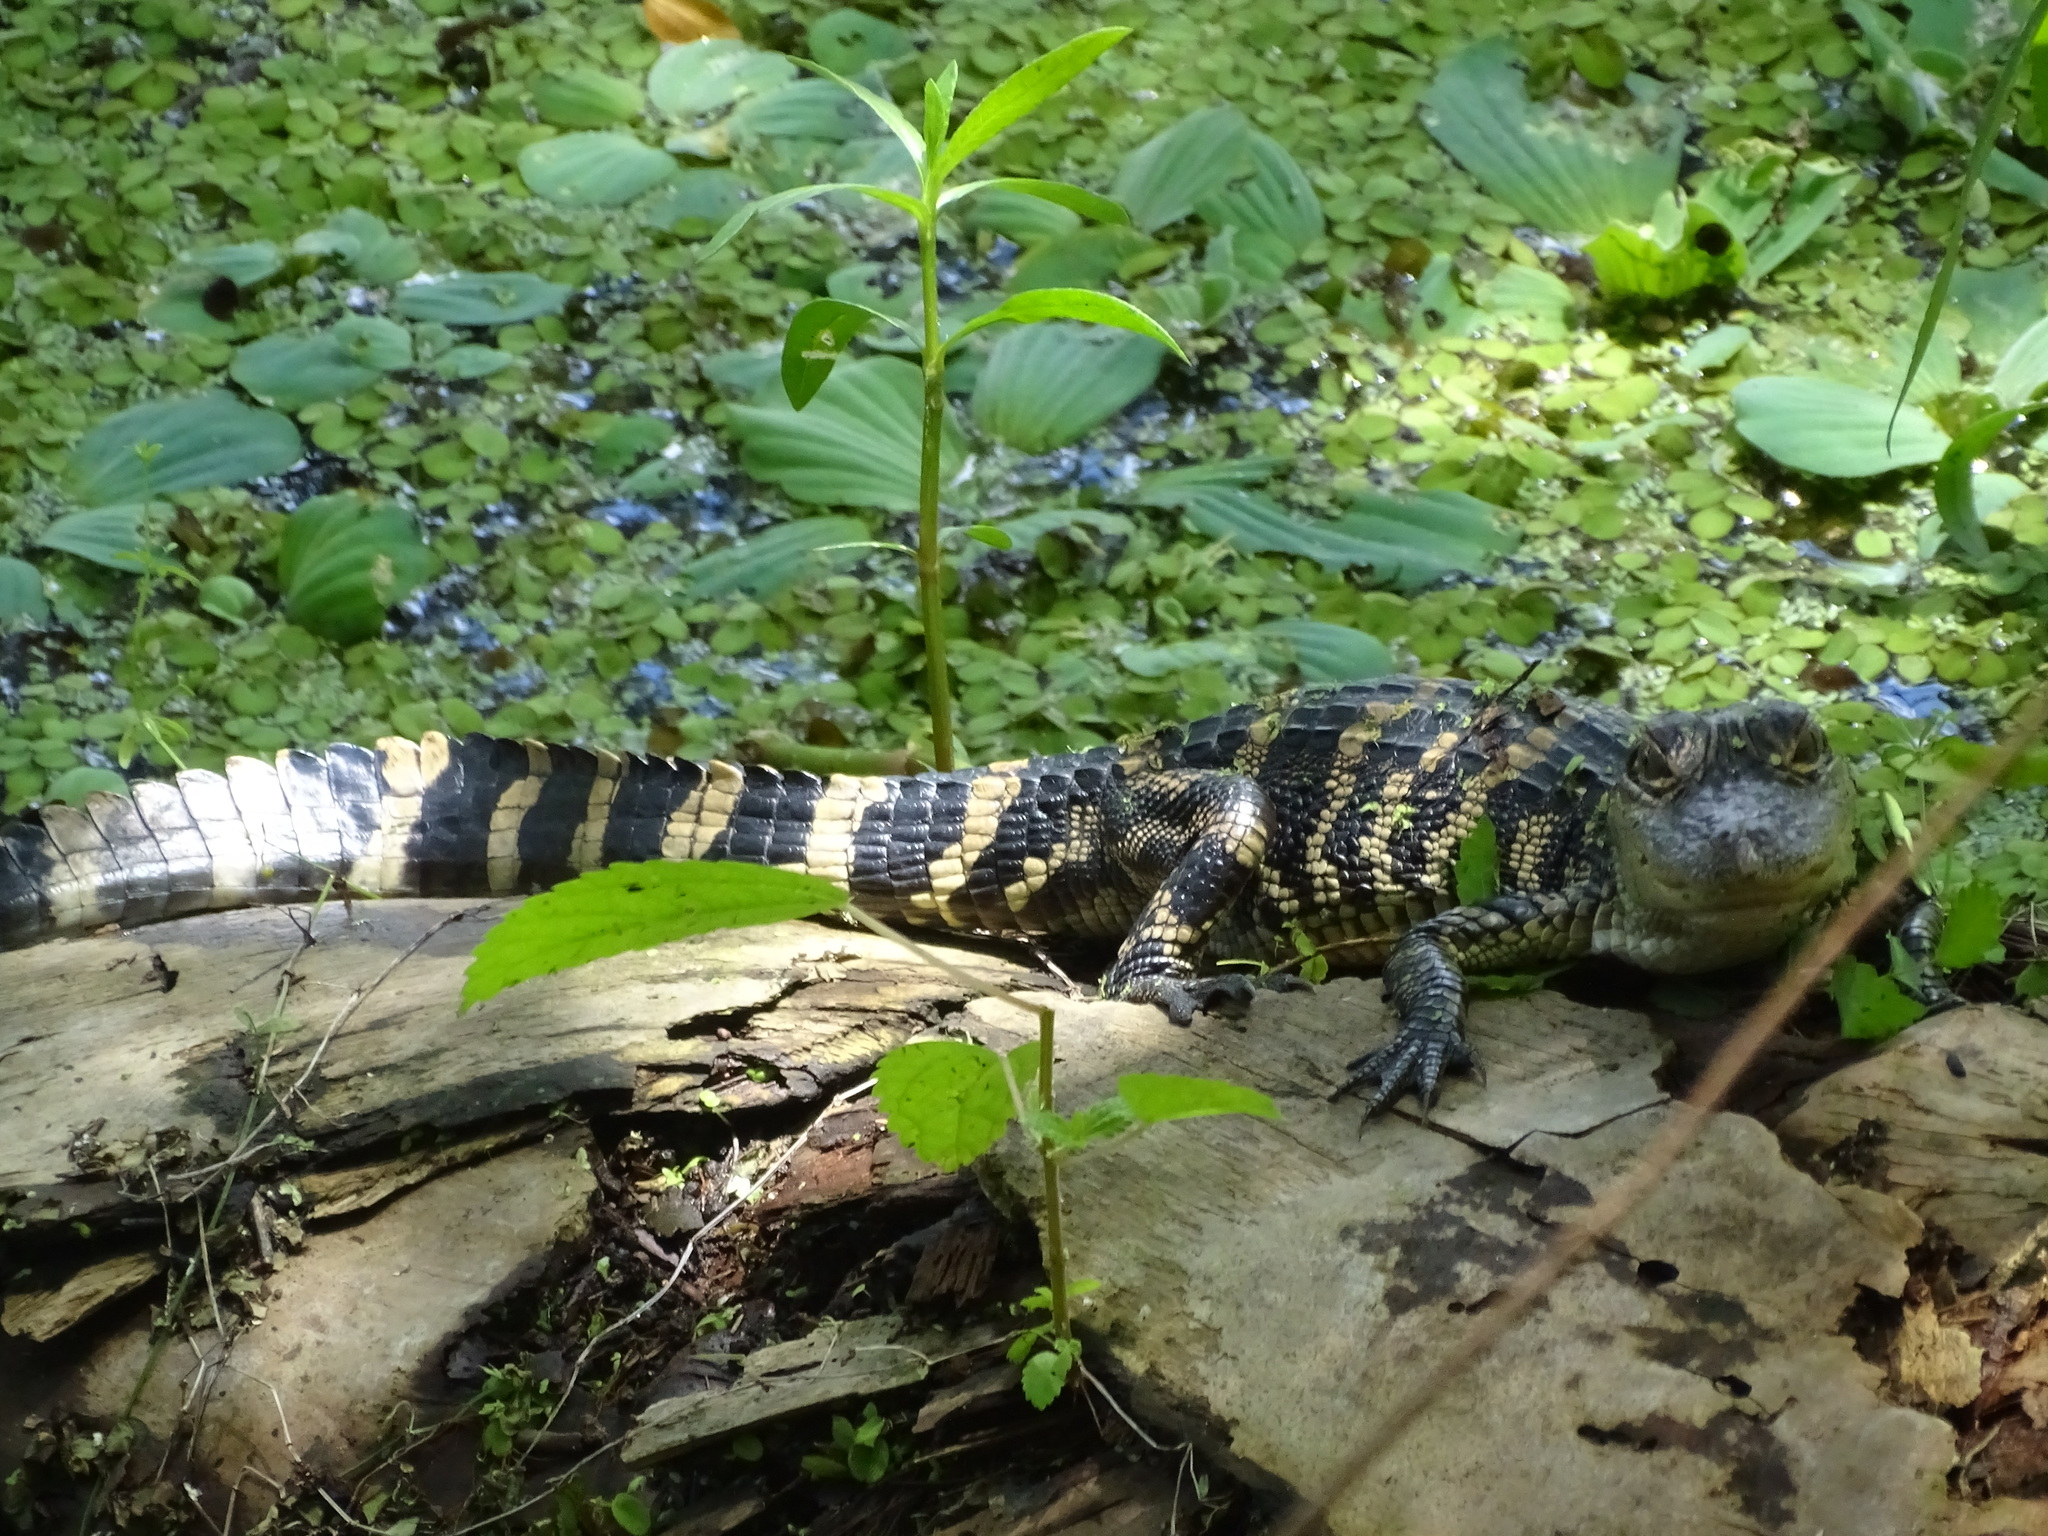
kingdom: Animalia
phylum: Chordata
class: Crocodylia
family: Alligatoridae
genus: Alligator
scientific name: Alligator mississippiensis
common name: American alligator
